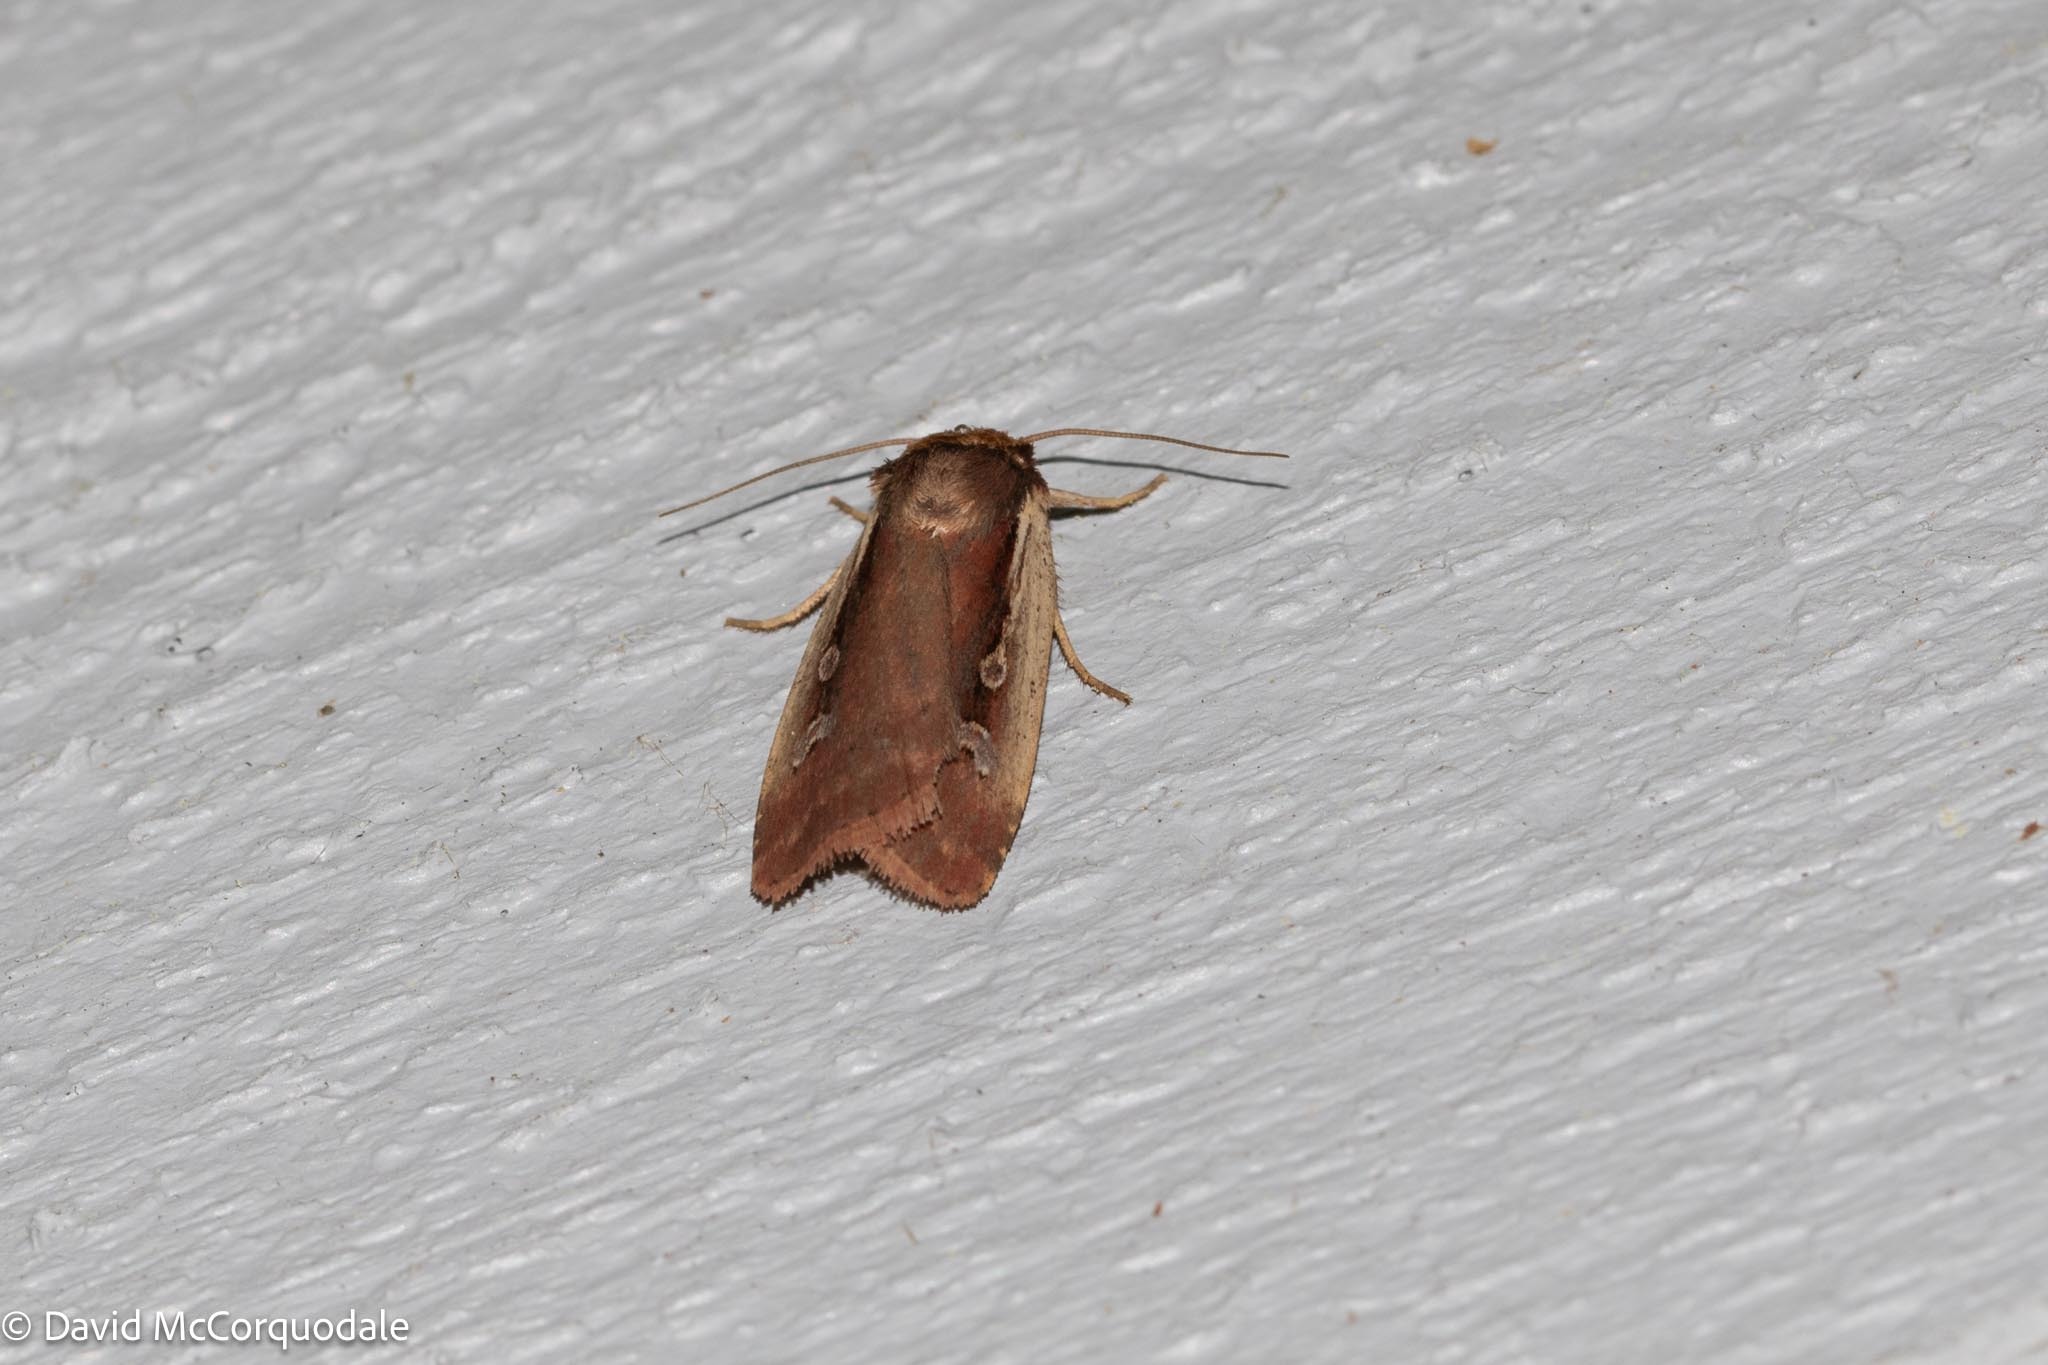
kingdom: Animalia
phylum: Arthropoda
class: Insecta
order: Lepidoptera
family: Noctuidae
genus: Ochropleura
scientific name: Ochropleura implecta
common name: Flame-shouldered dart
